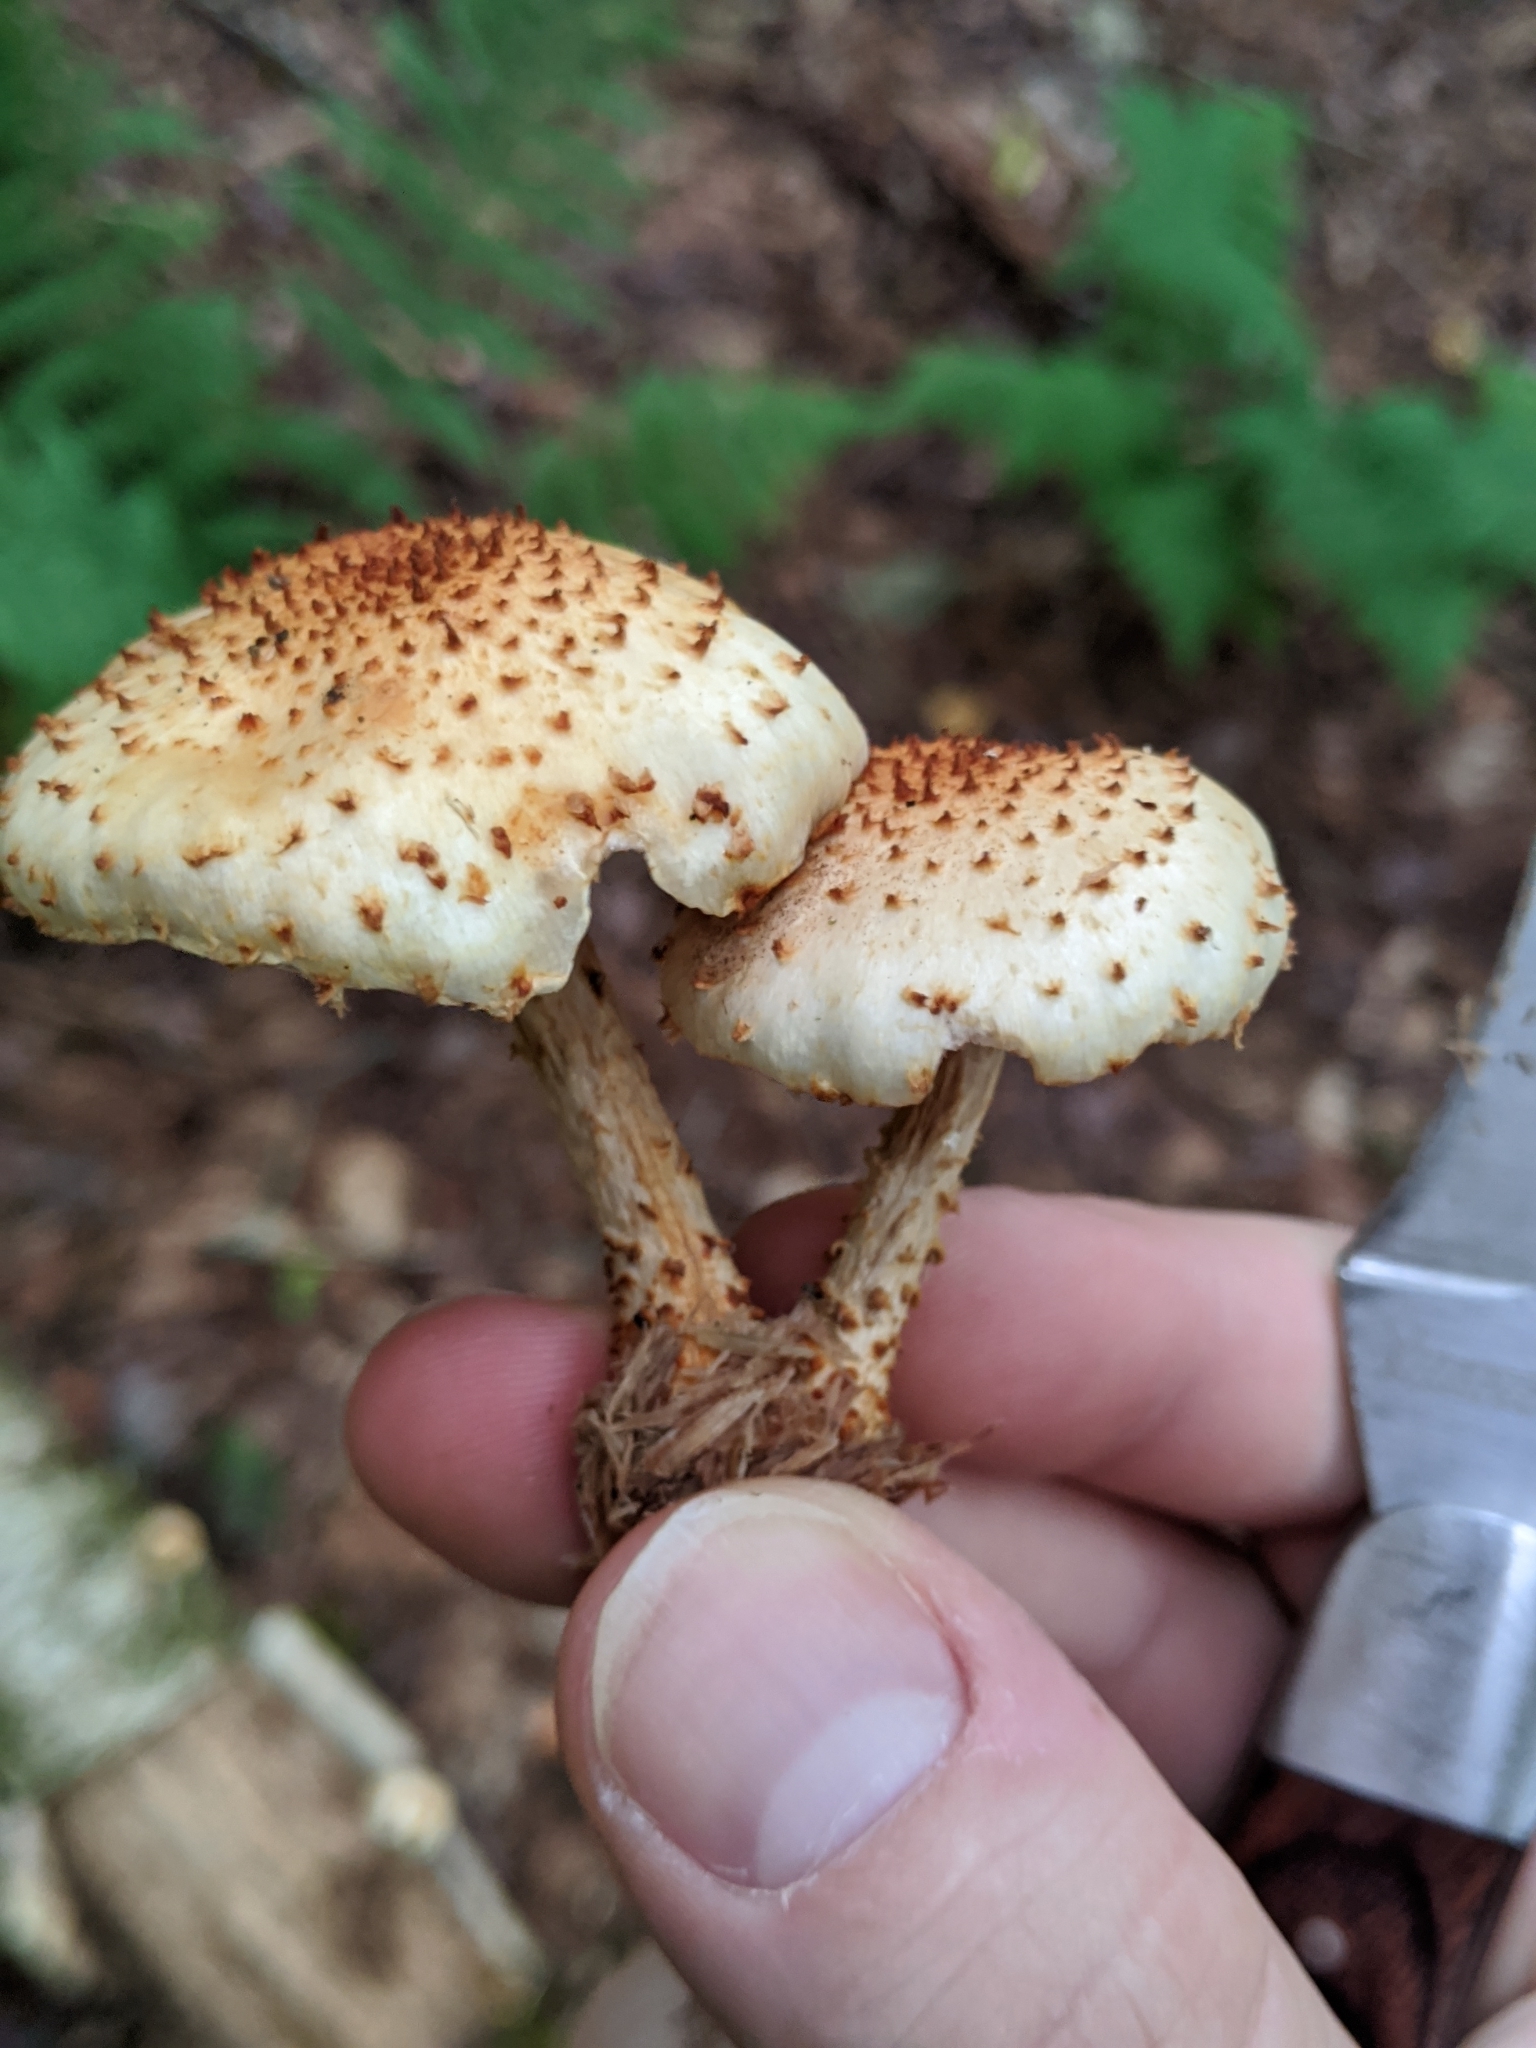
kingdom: Fungi
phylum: Basidiomycota
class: Agaricomycetes
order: Agaricales
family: Strophariaceae
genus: Pholiota
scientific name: Pholiota squarrosoides
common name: Sharp-scaly pholiota
